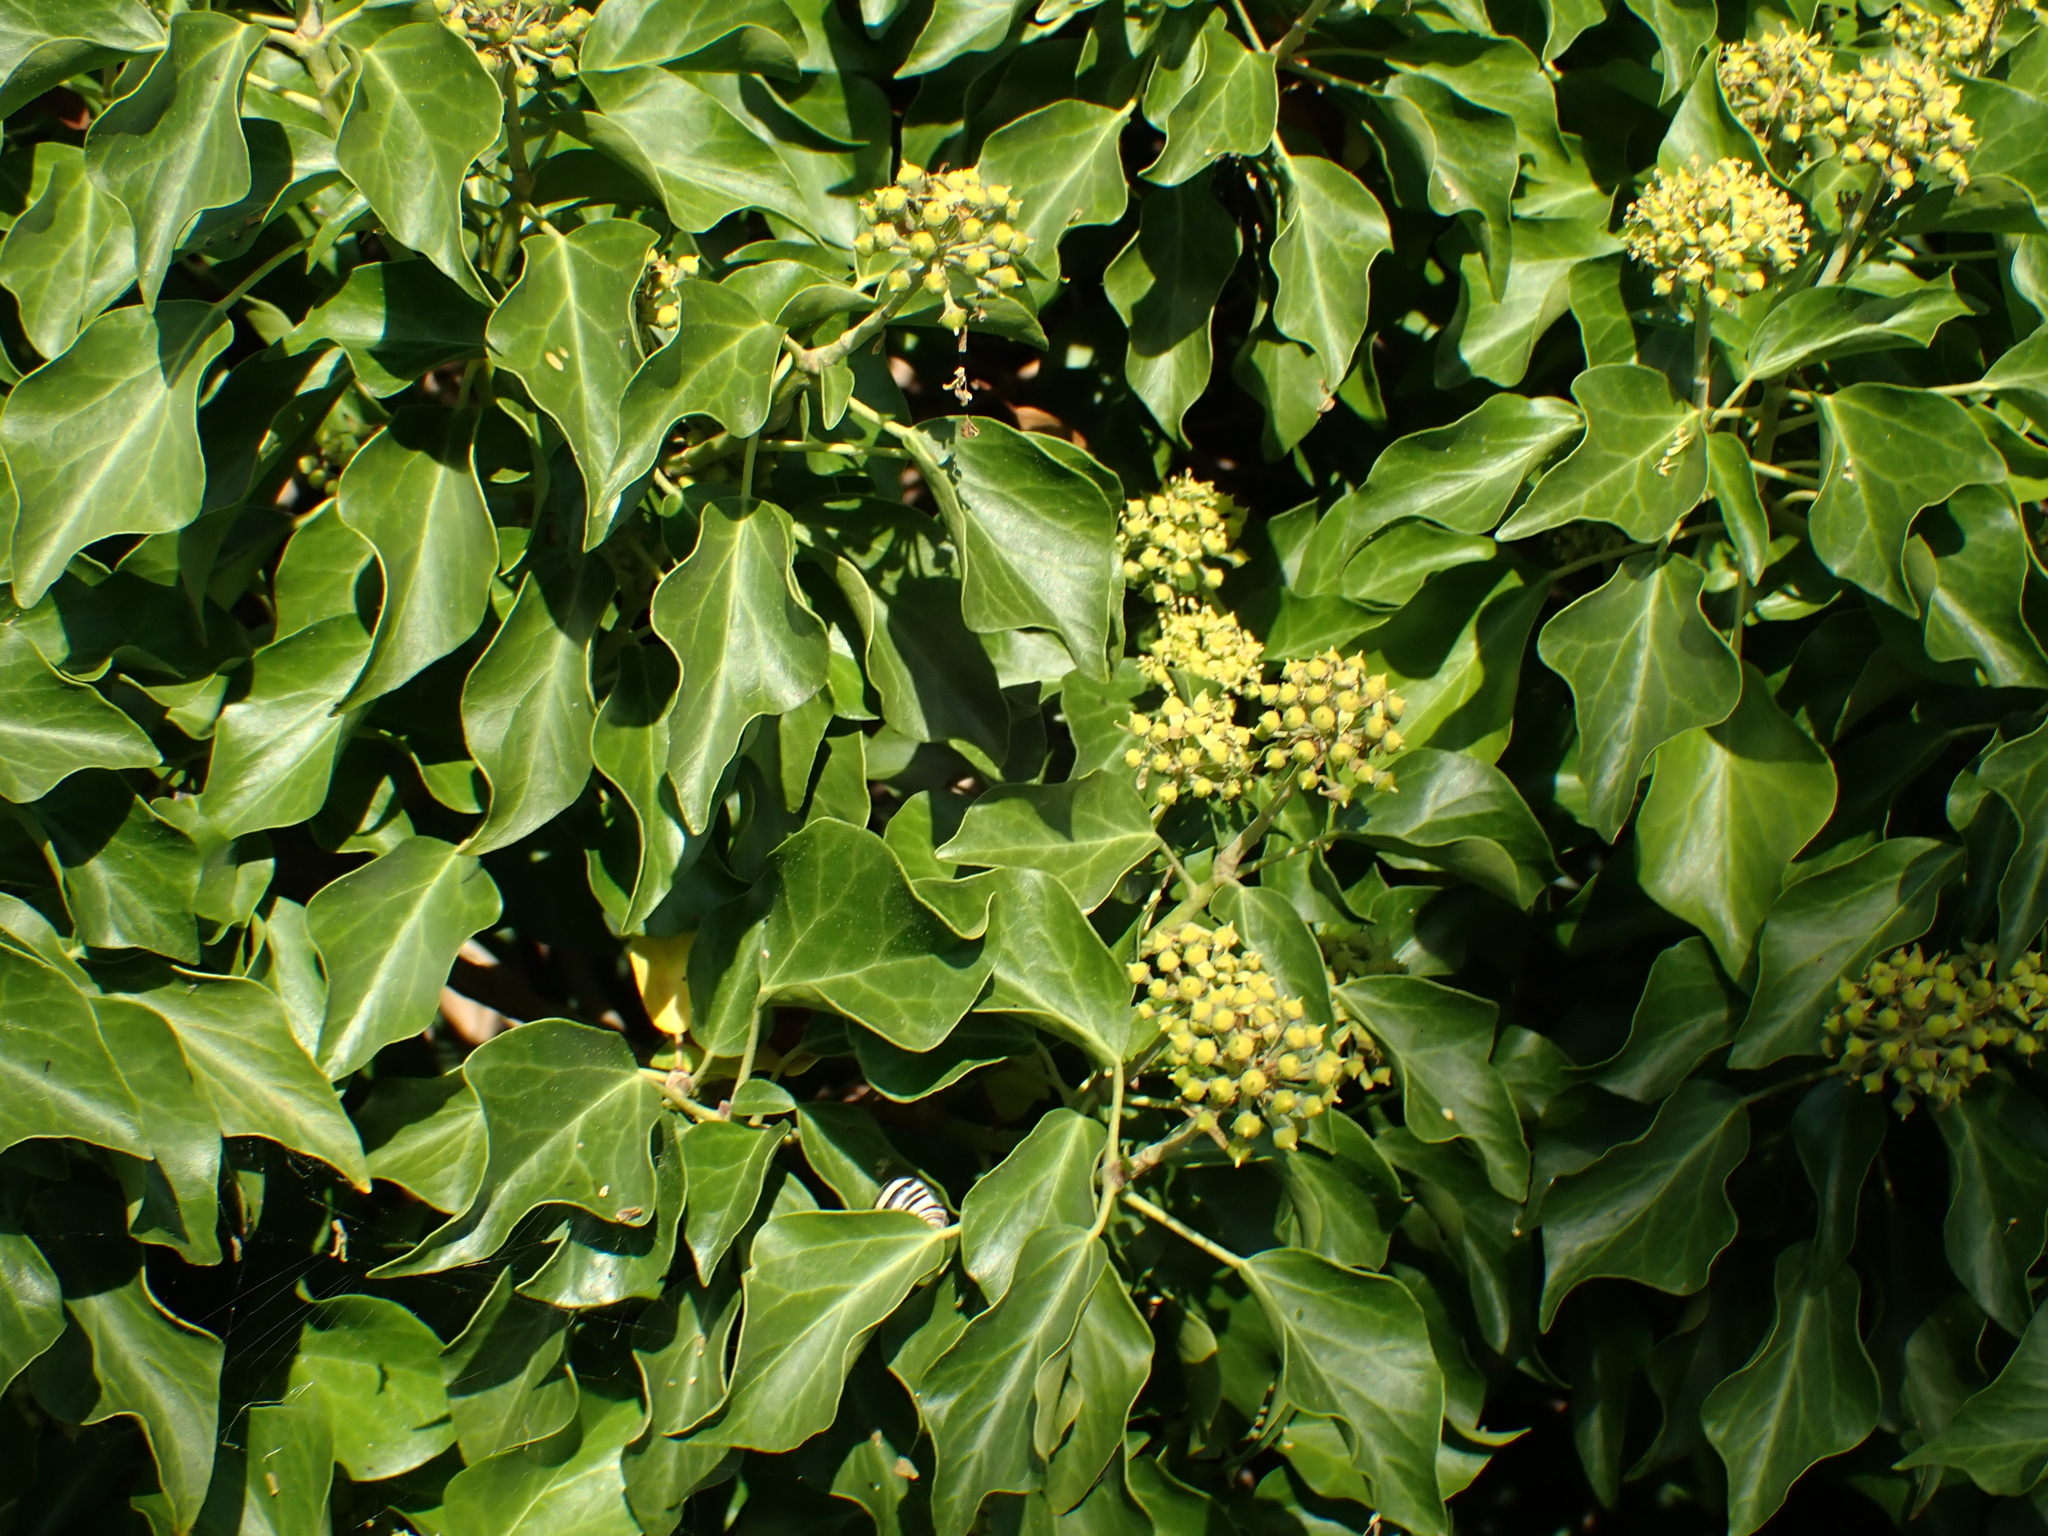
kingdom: Plantae
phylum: Tracheophyta
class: Magnoliopsida
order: Apiales
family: Araliaceae
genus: Hedera
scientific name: Hedera helix
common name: Ivy
